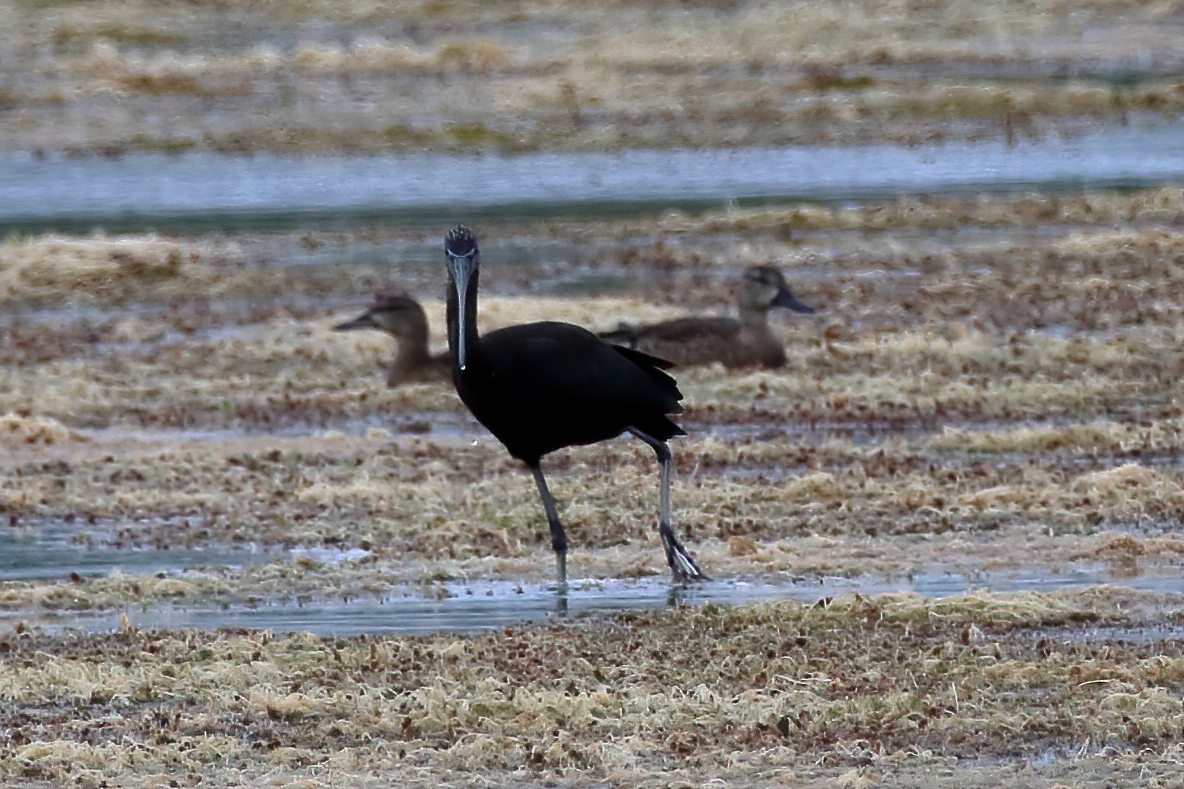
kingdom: Animalia
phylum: Chordata
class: Aves
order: Pelecaniformes
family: Threskiornithidae
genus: Plegadis
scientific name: Plegadis falcinellus
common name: Glossy ibis
